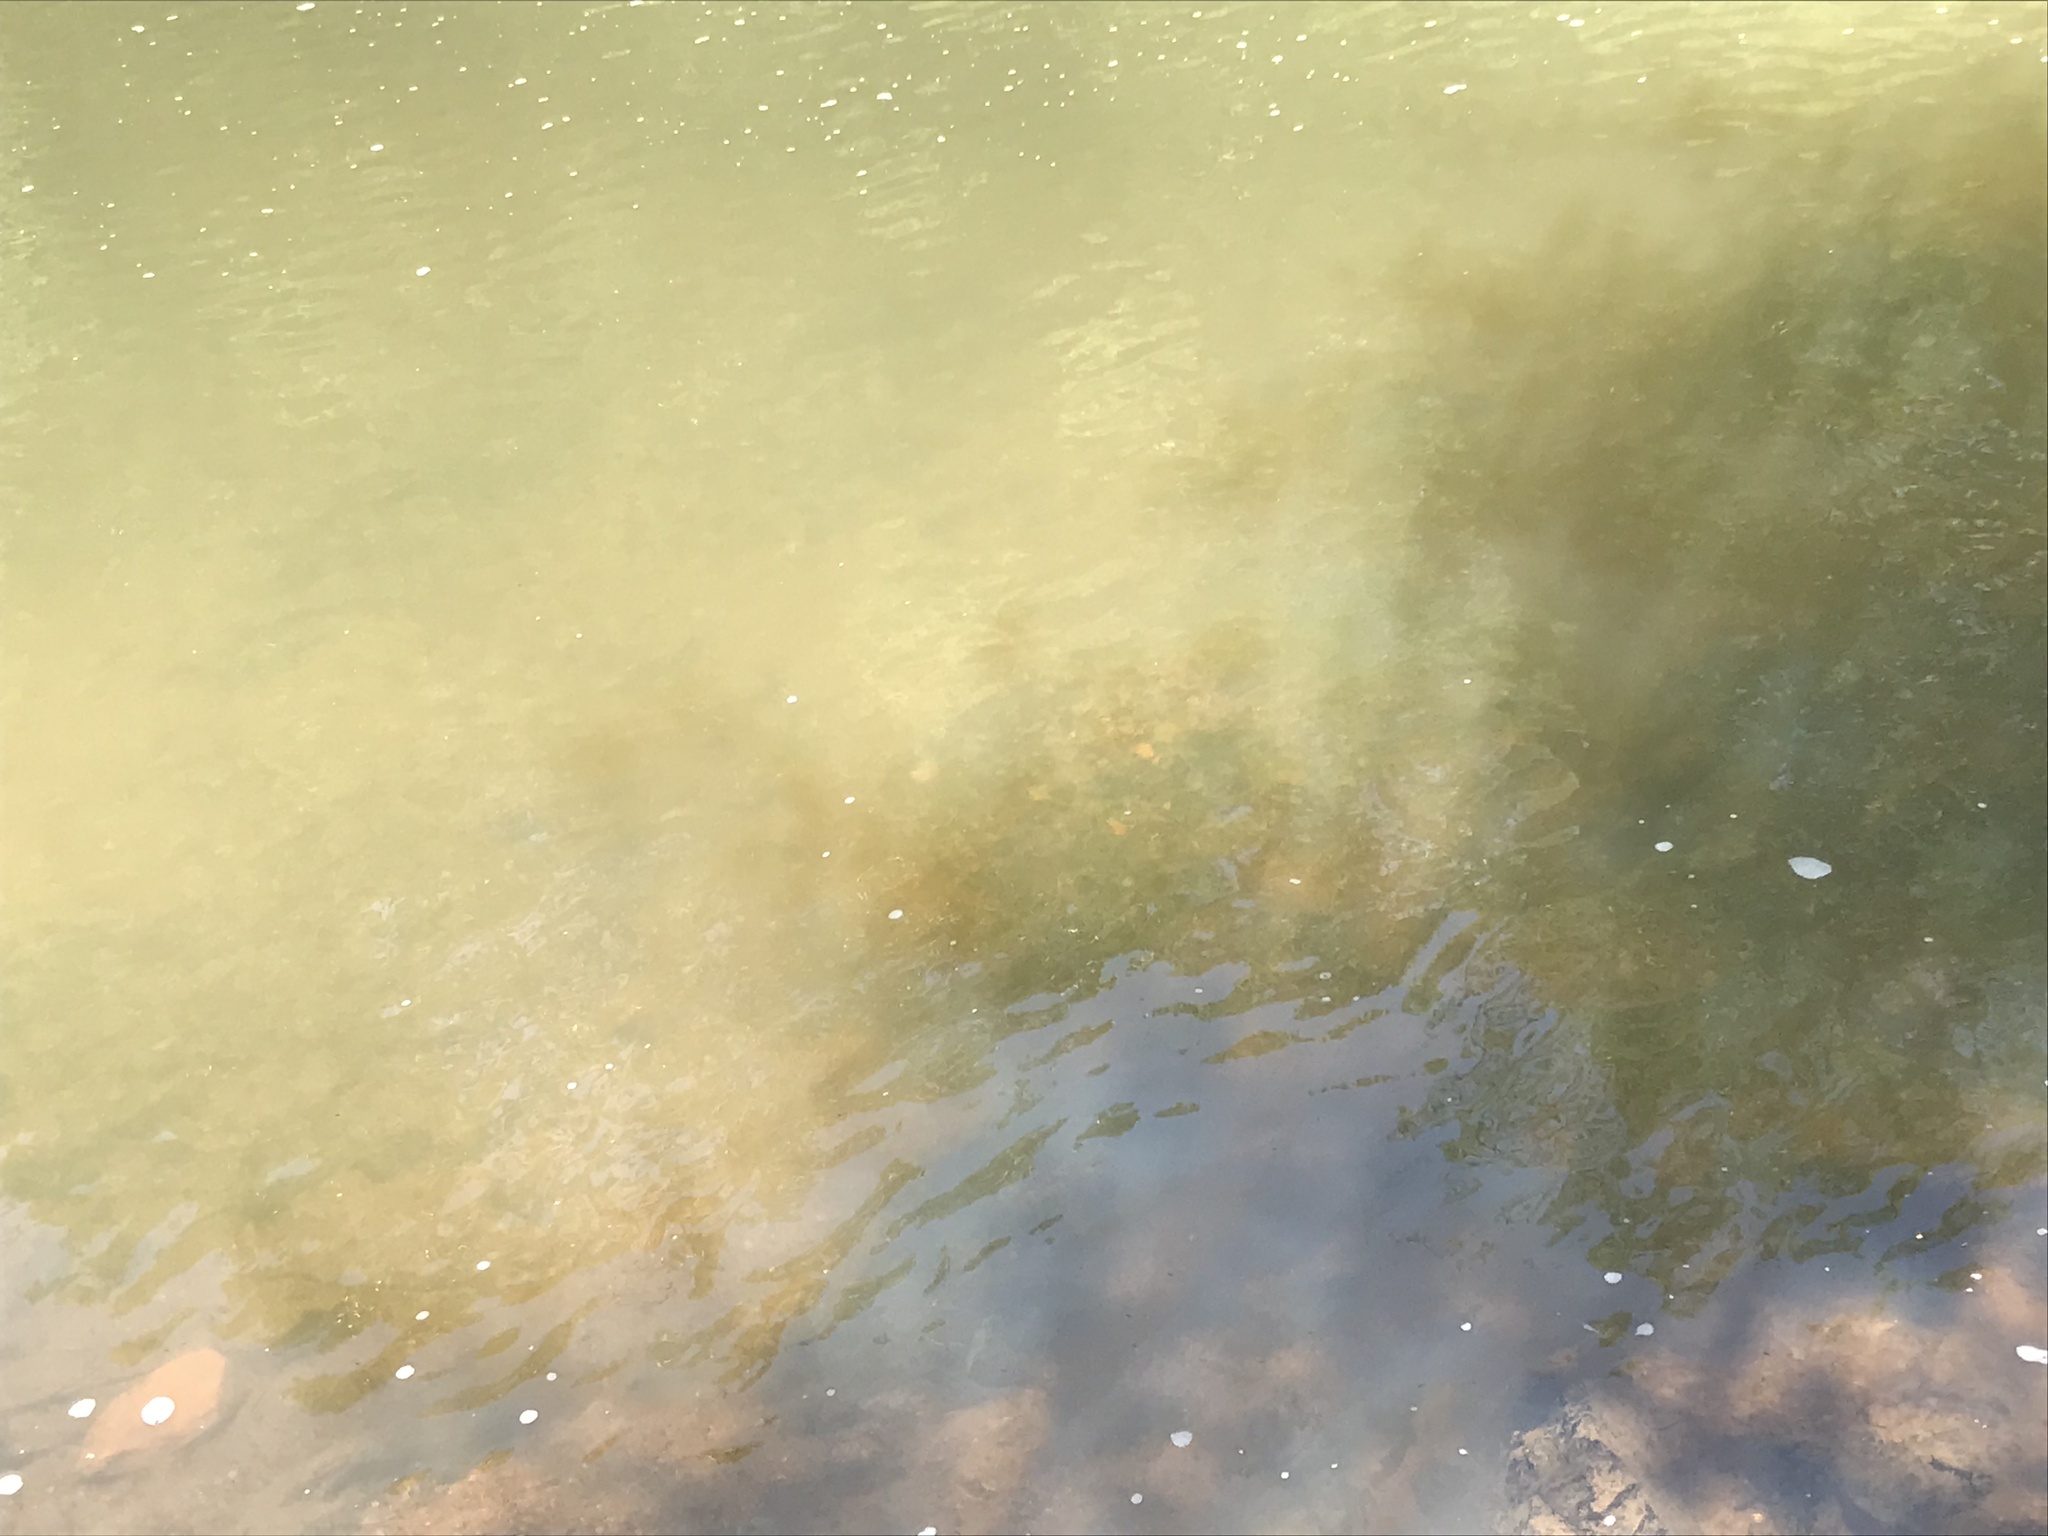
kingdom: Animalia
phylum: Chordata
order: Cypriniformes
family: Cyprinidae
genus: Lythrurus
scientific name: Lythrurus matutinus
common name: Pinewoods shiner
